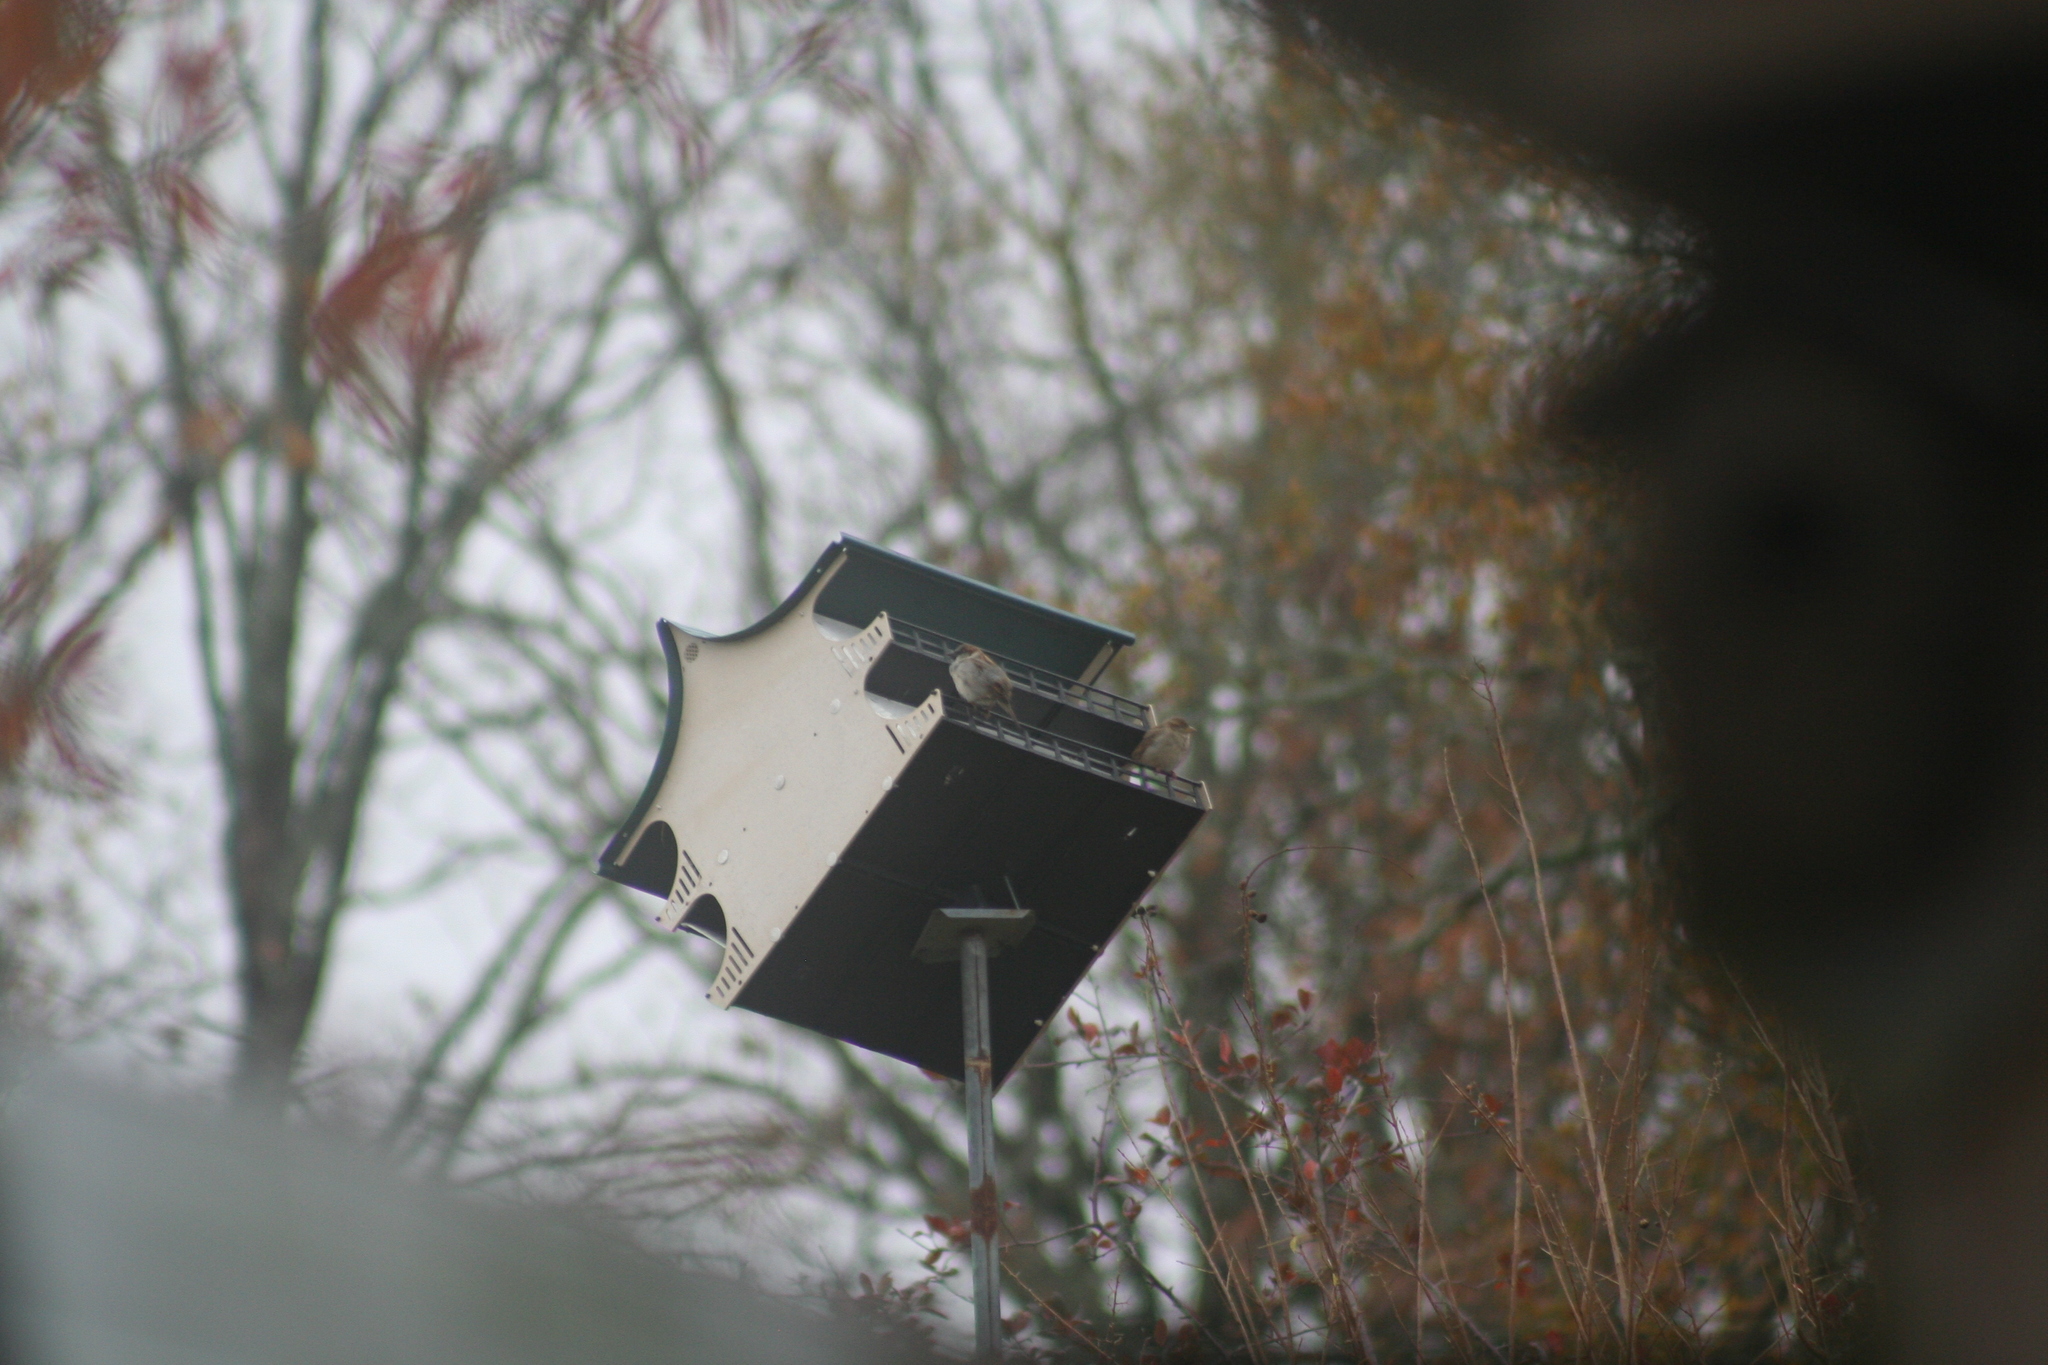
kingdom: Animalia
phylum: Chordata
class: Aves
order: Passeriformes
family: Passeridae
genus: Passer
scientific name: Passer domesticus
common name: House sparrow
